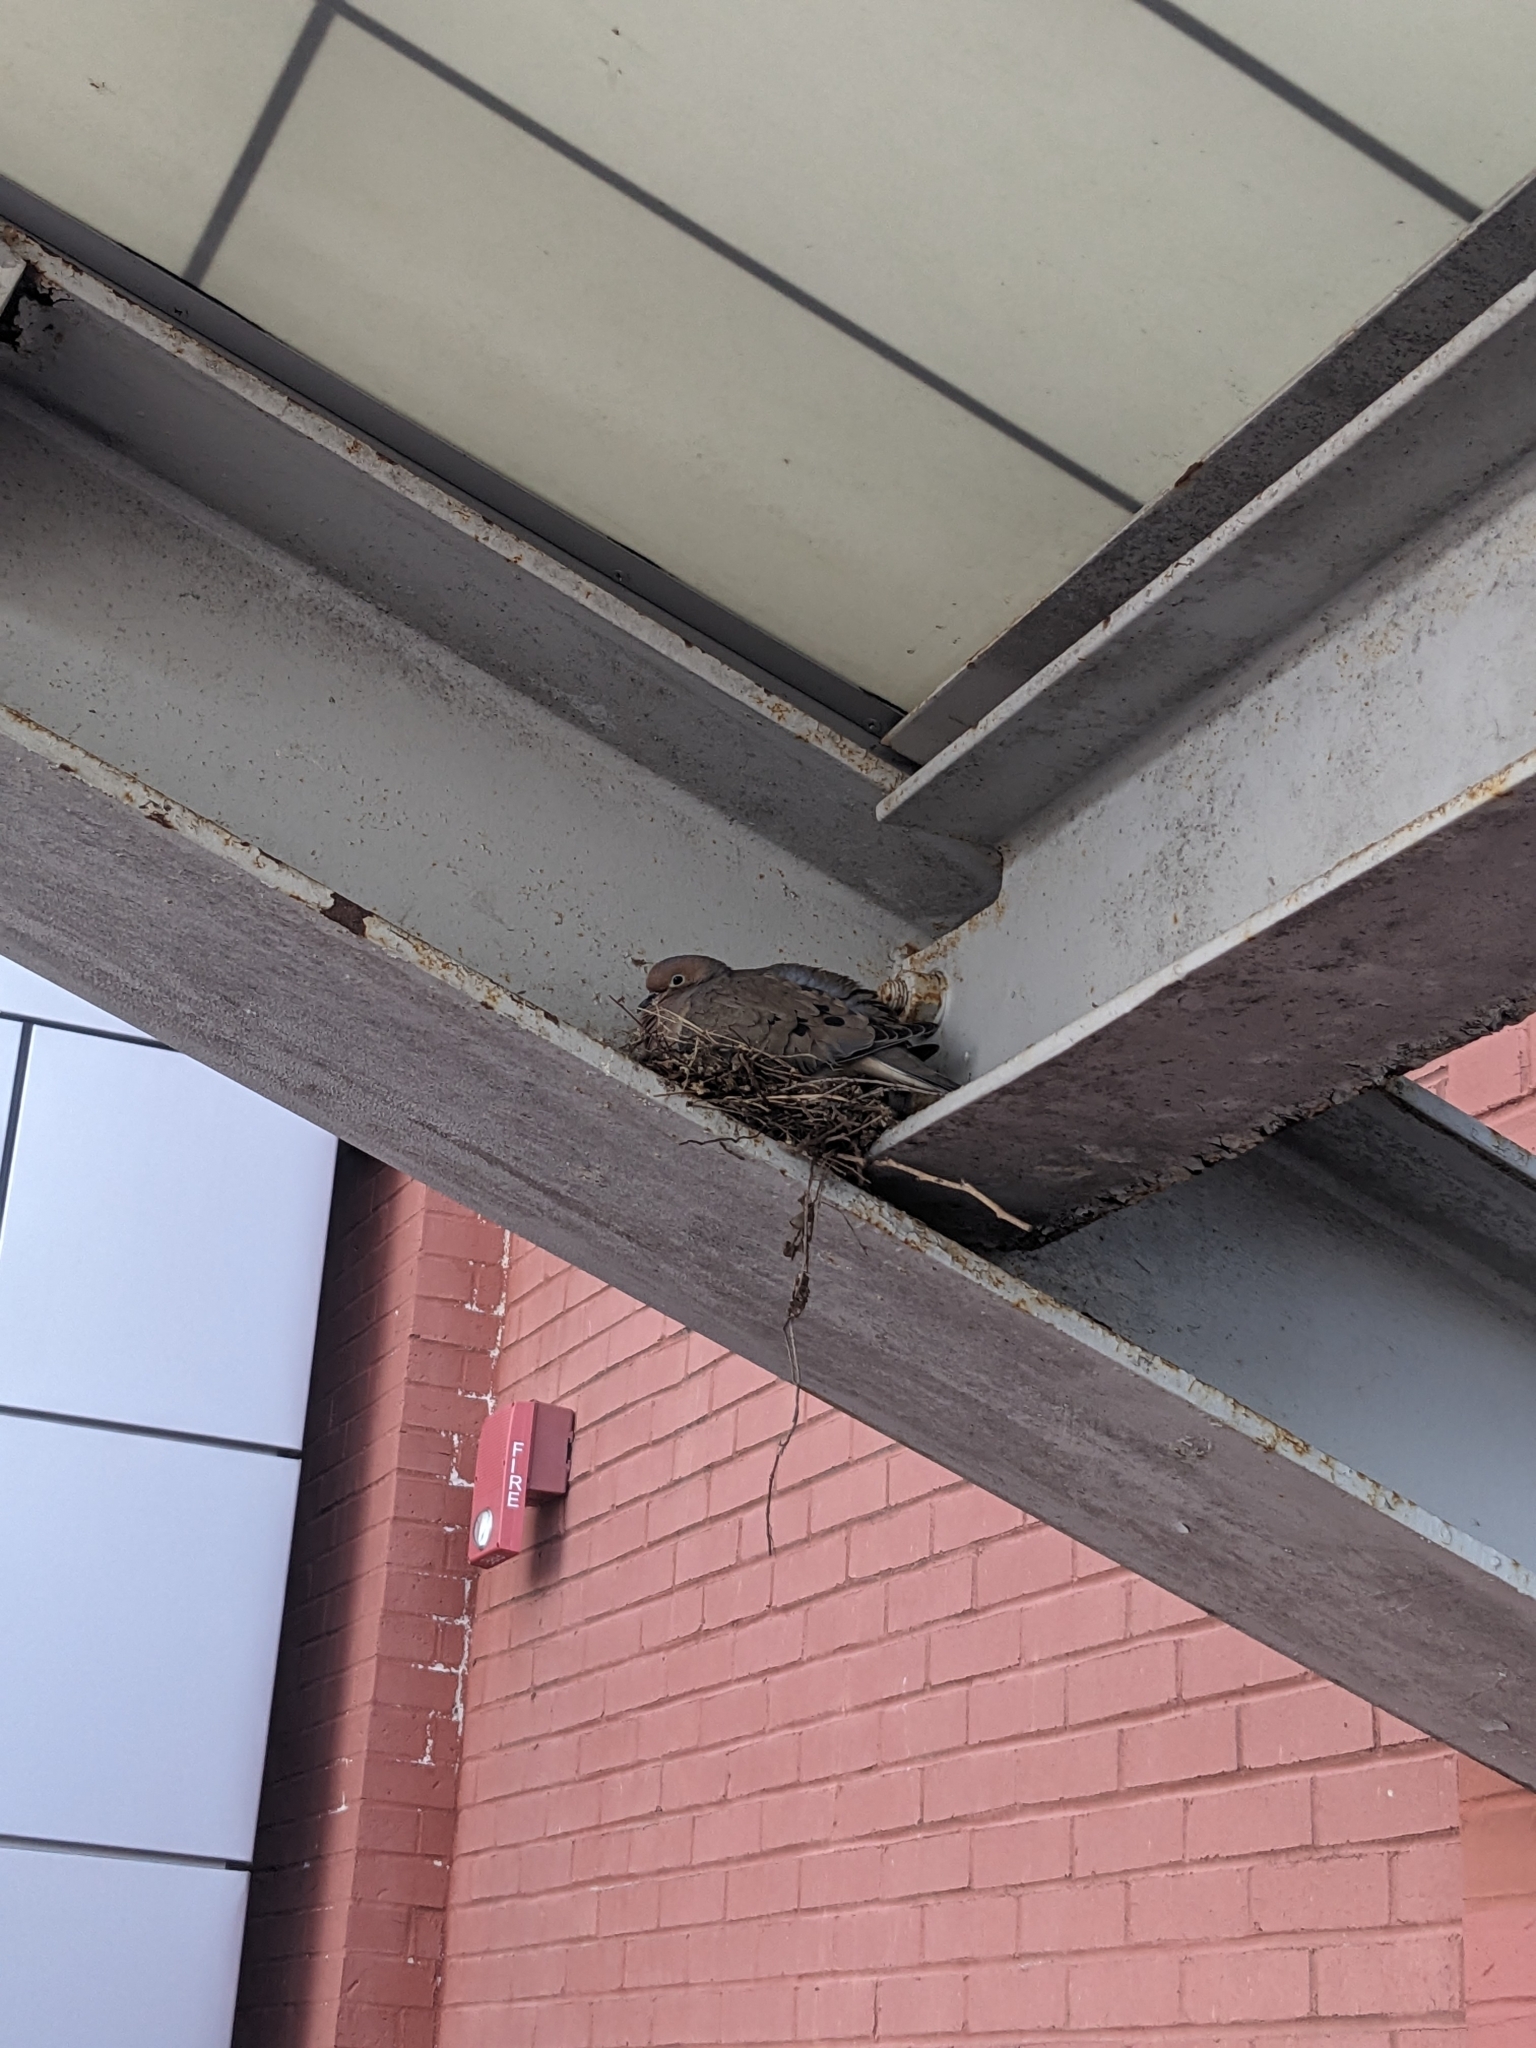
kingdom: Animalia
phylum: Chordata
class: Aves
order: Columbiformes
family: Columbidae
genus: Zenaida
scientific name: Zenaida macroura
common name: Mourning dove
